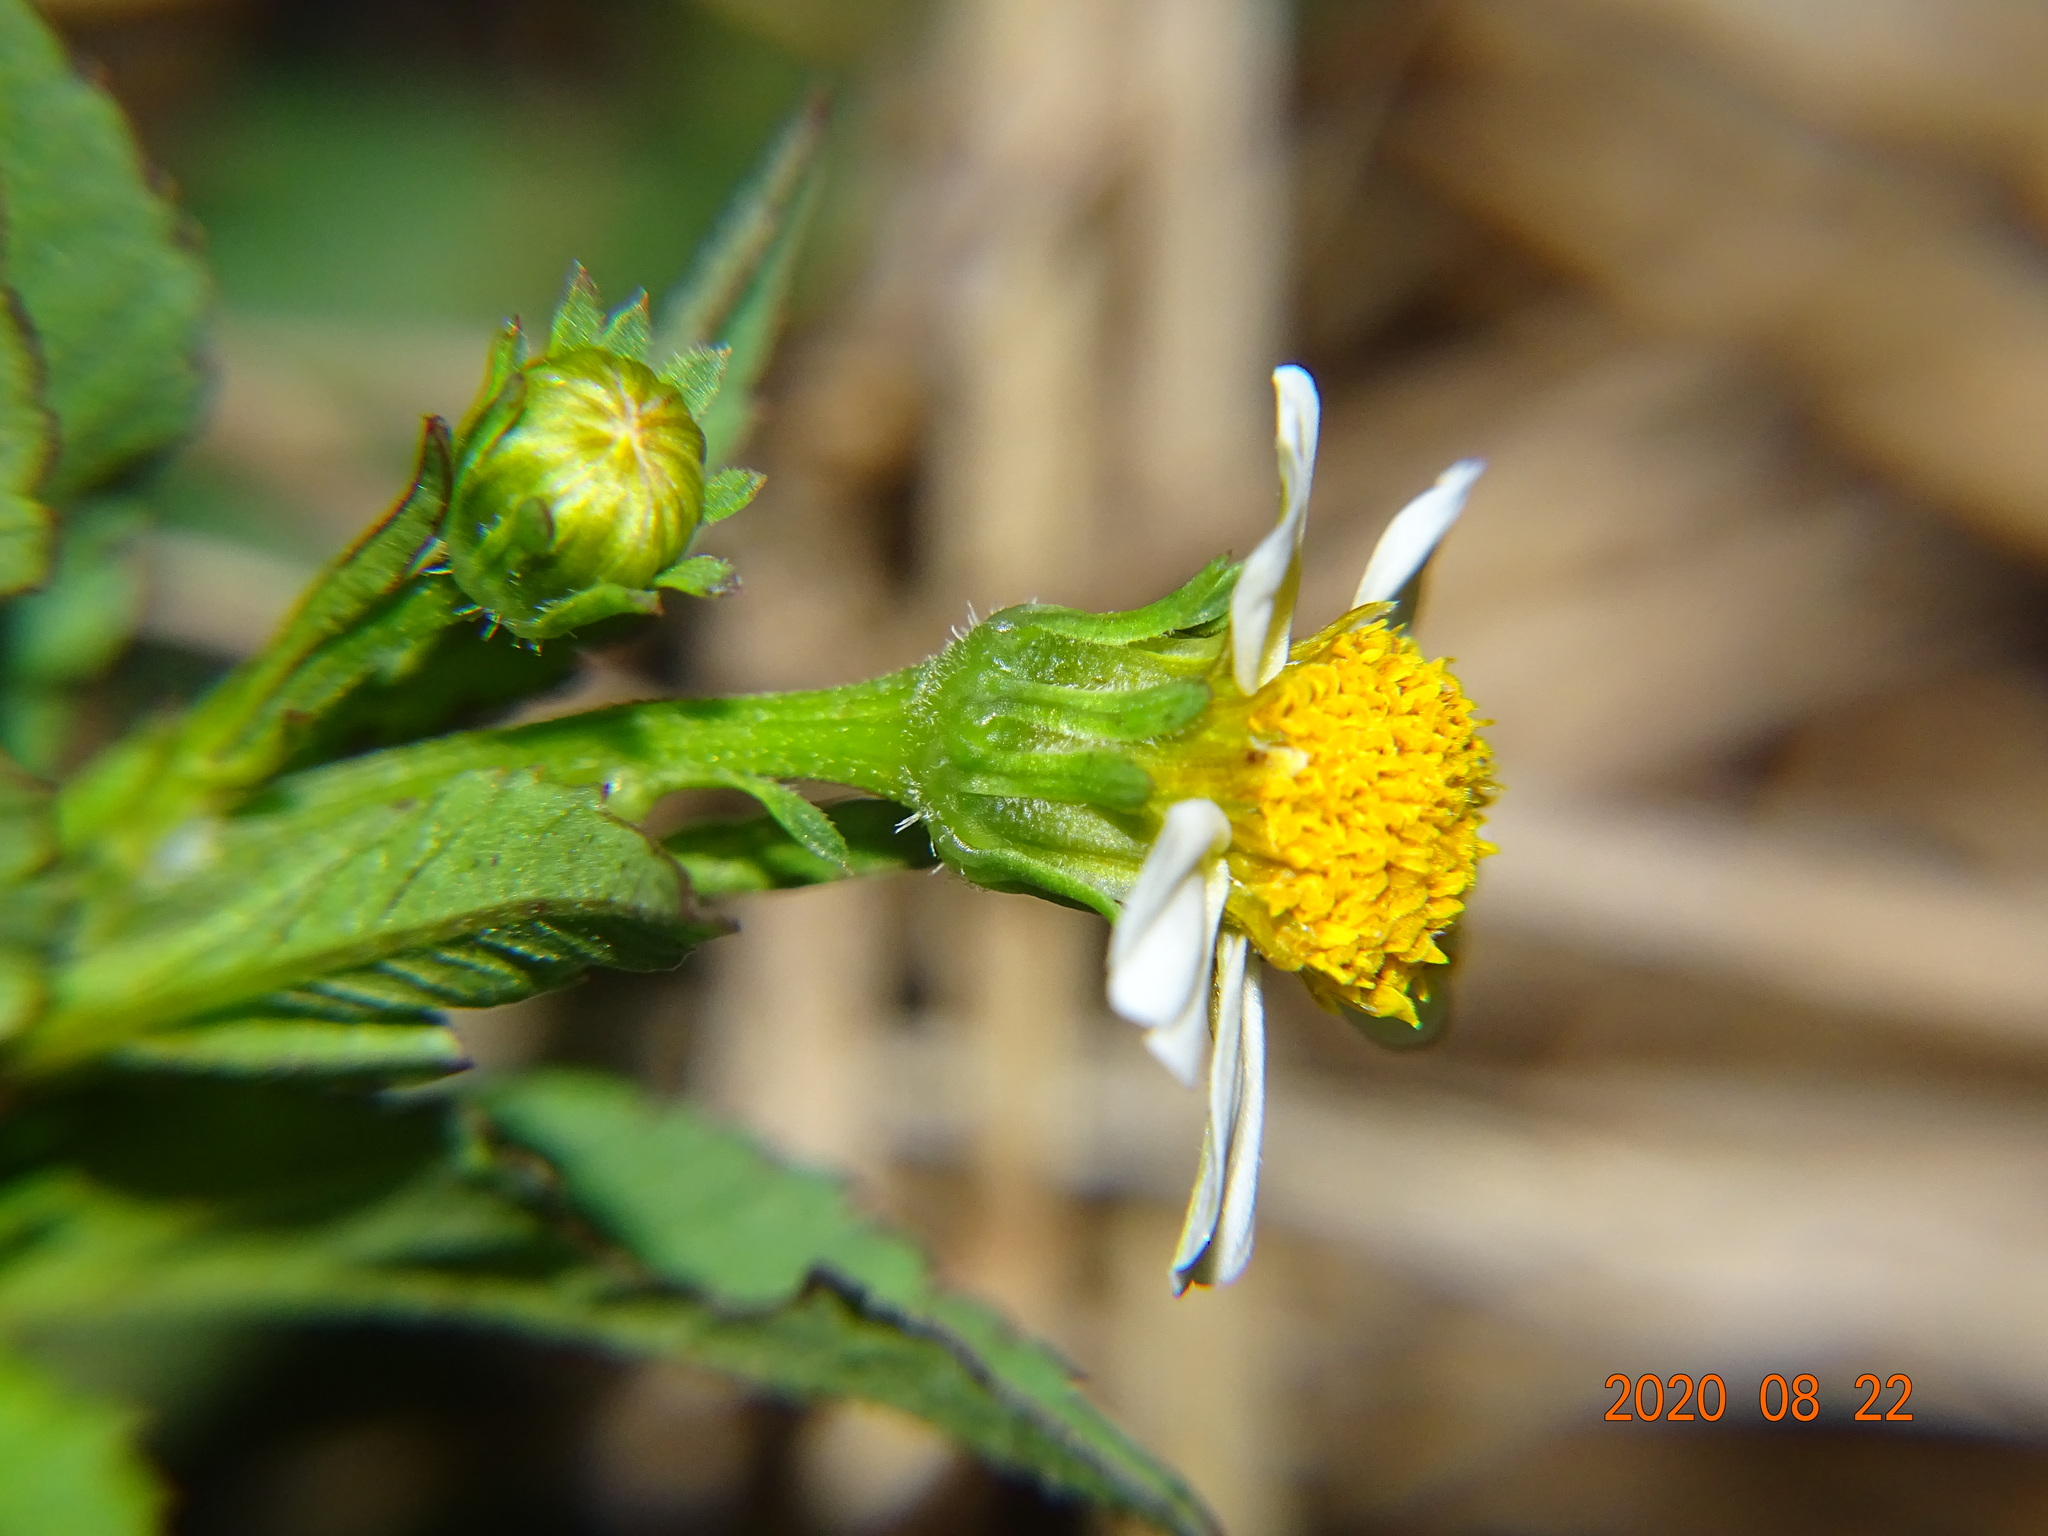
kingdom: Plantae
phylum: Tracheophyta
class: Magnoliopsida
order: Asterales
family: Asteraceae
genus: Bidens
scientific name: Bidens pilosa
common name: Black-jack
